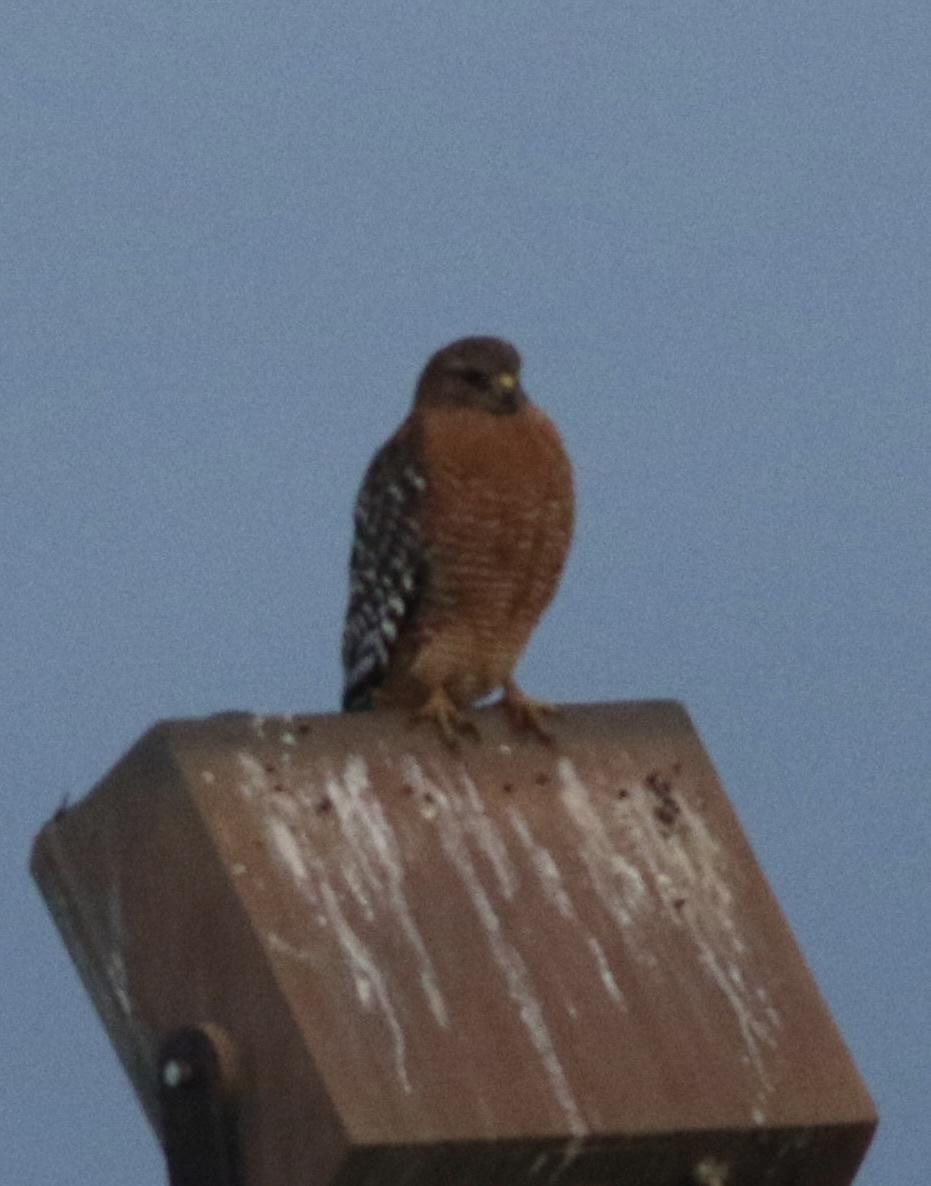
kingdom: Animalia
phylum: Chordata
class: Aves
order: Accipitriformes
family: Accipitridae
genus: Buteo
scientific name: Buteo lineatus
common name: Red-shouldered hawk
